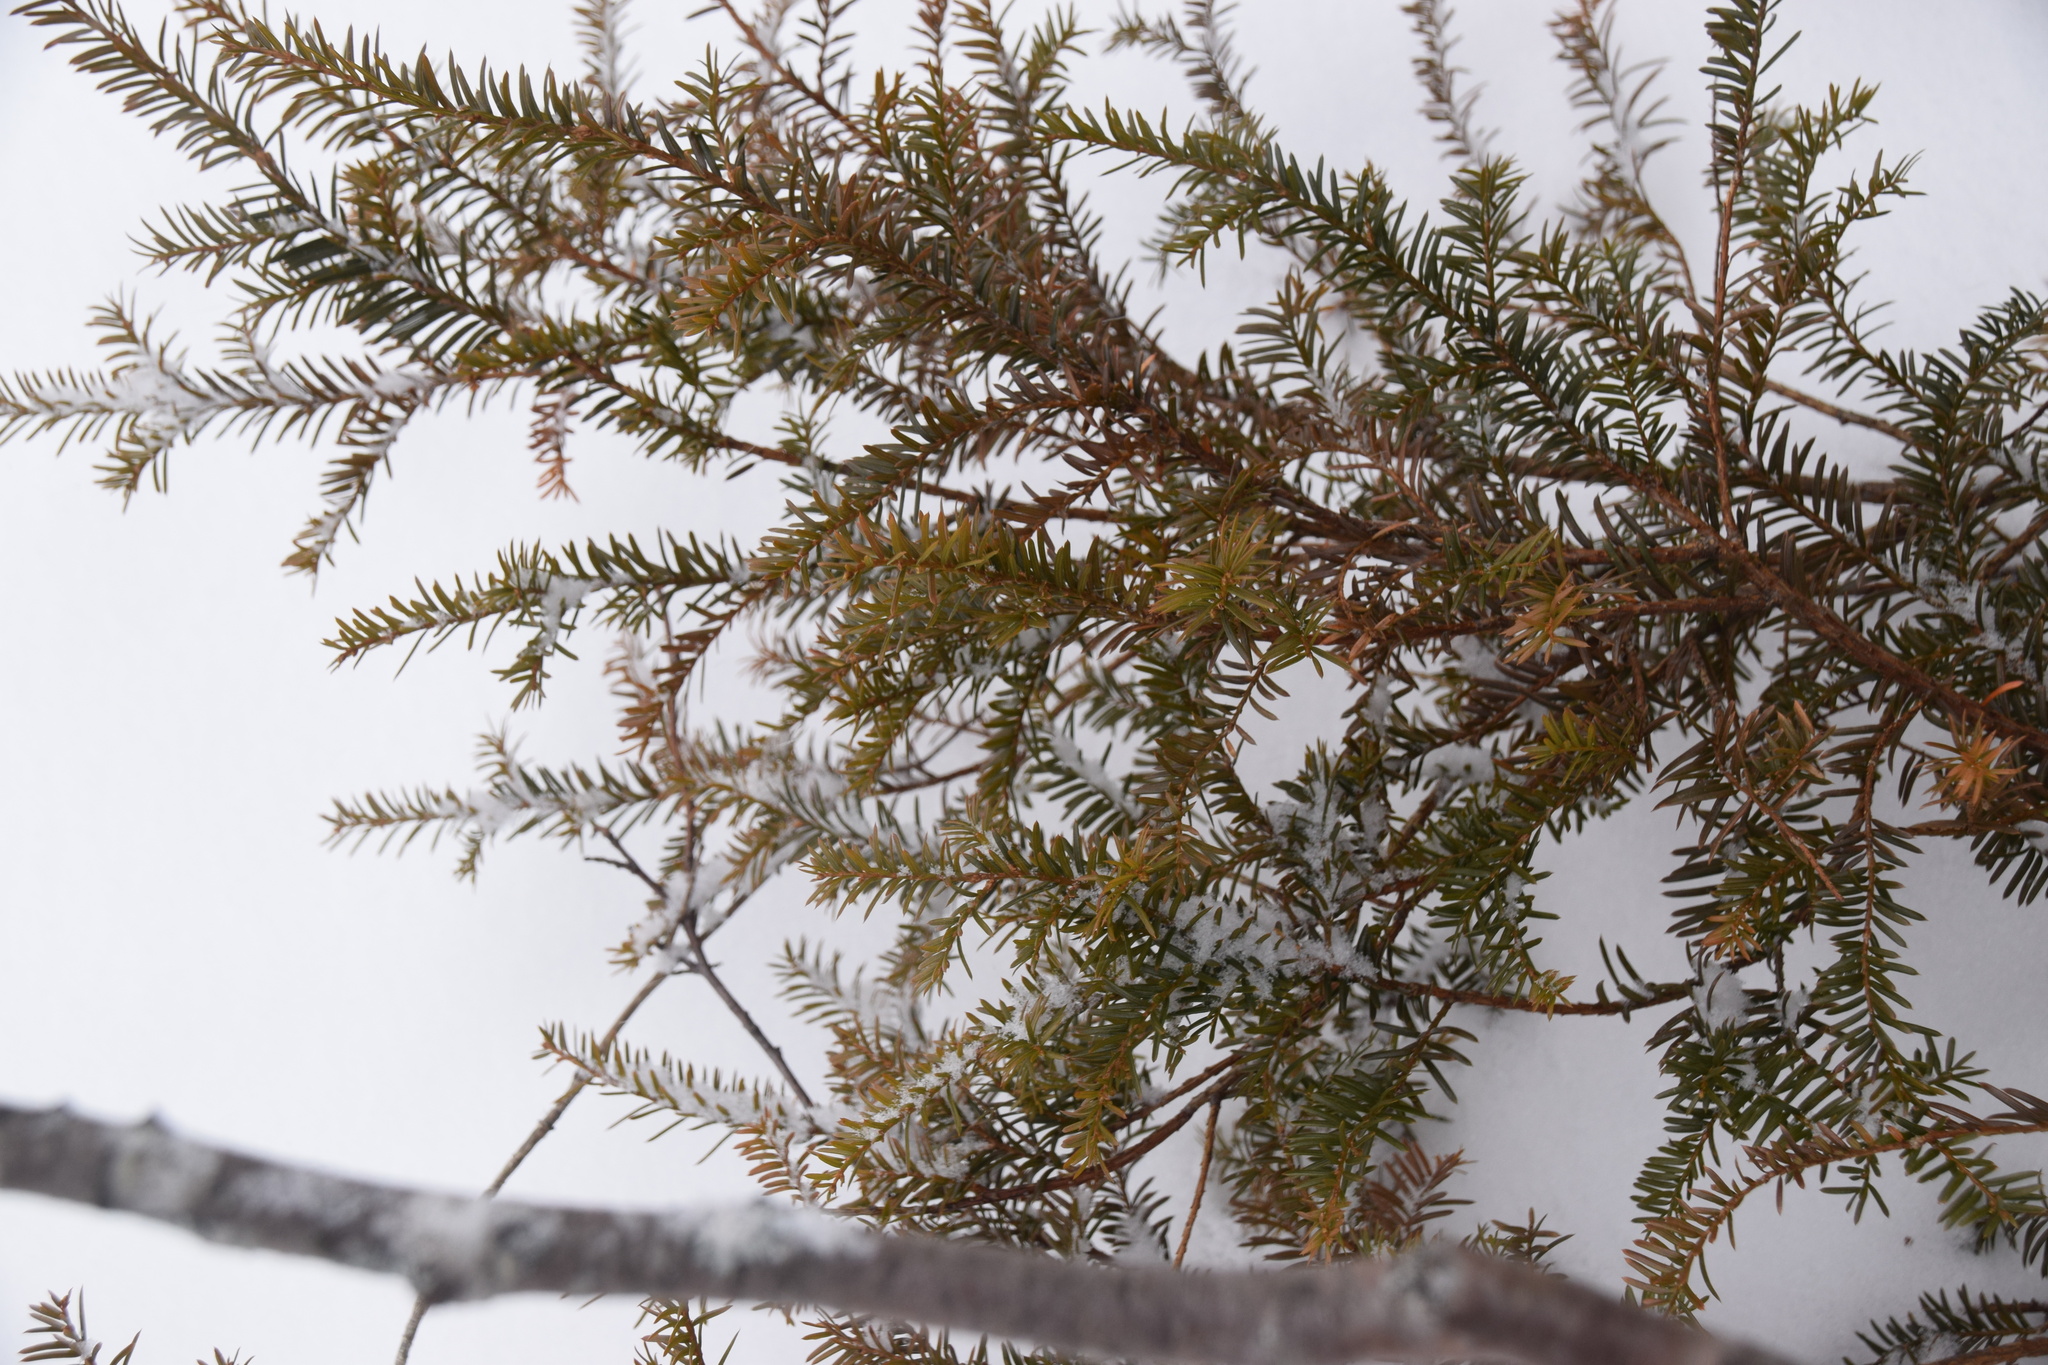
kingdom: Plantae
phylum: Tracheophyta
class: Pinopsida
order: Pinales
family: Taxaceae
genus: Taxus
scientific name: Taxus canadensis
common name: American yew
